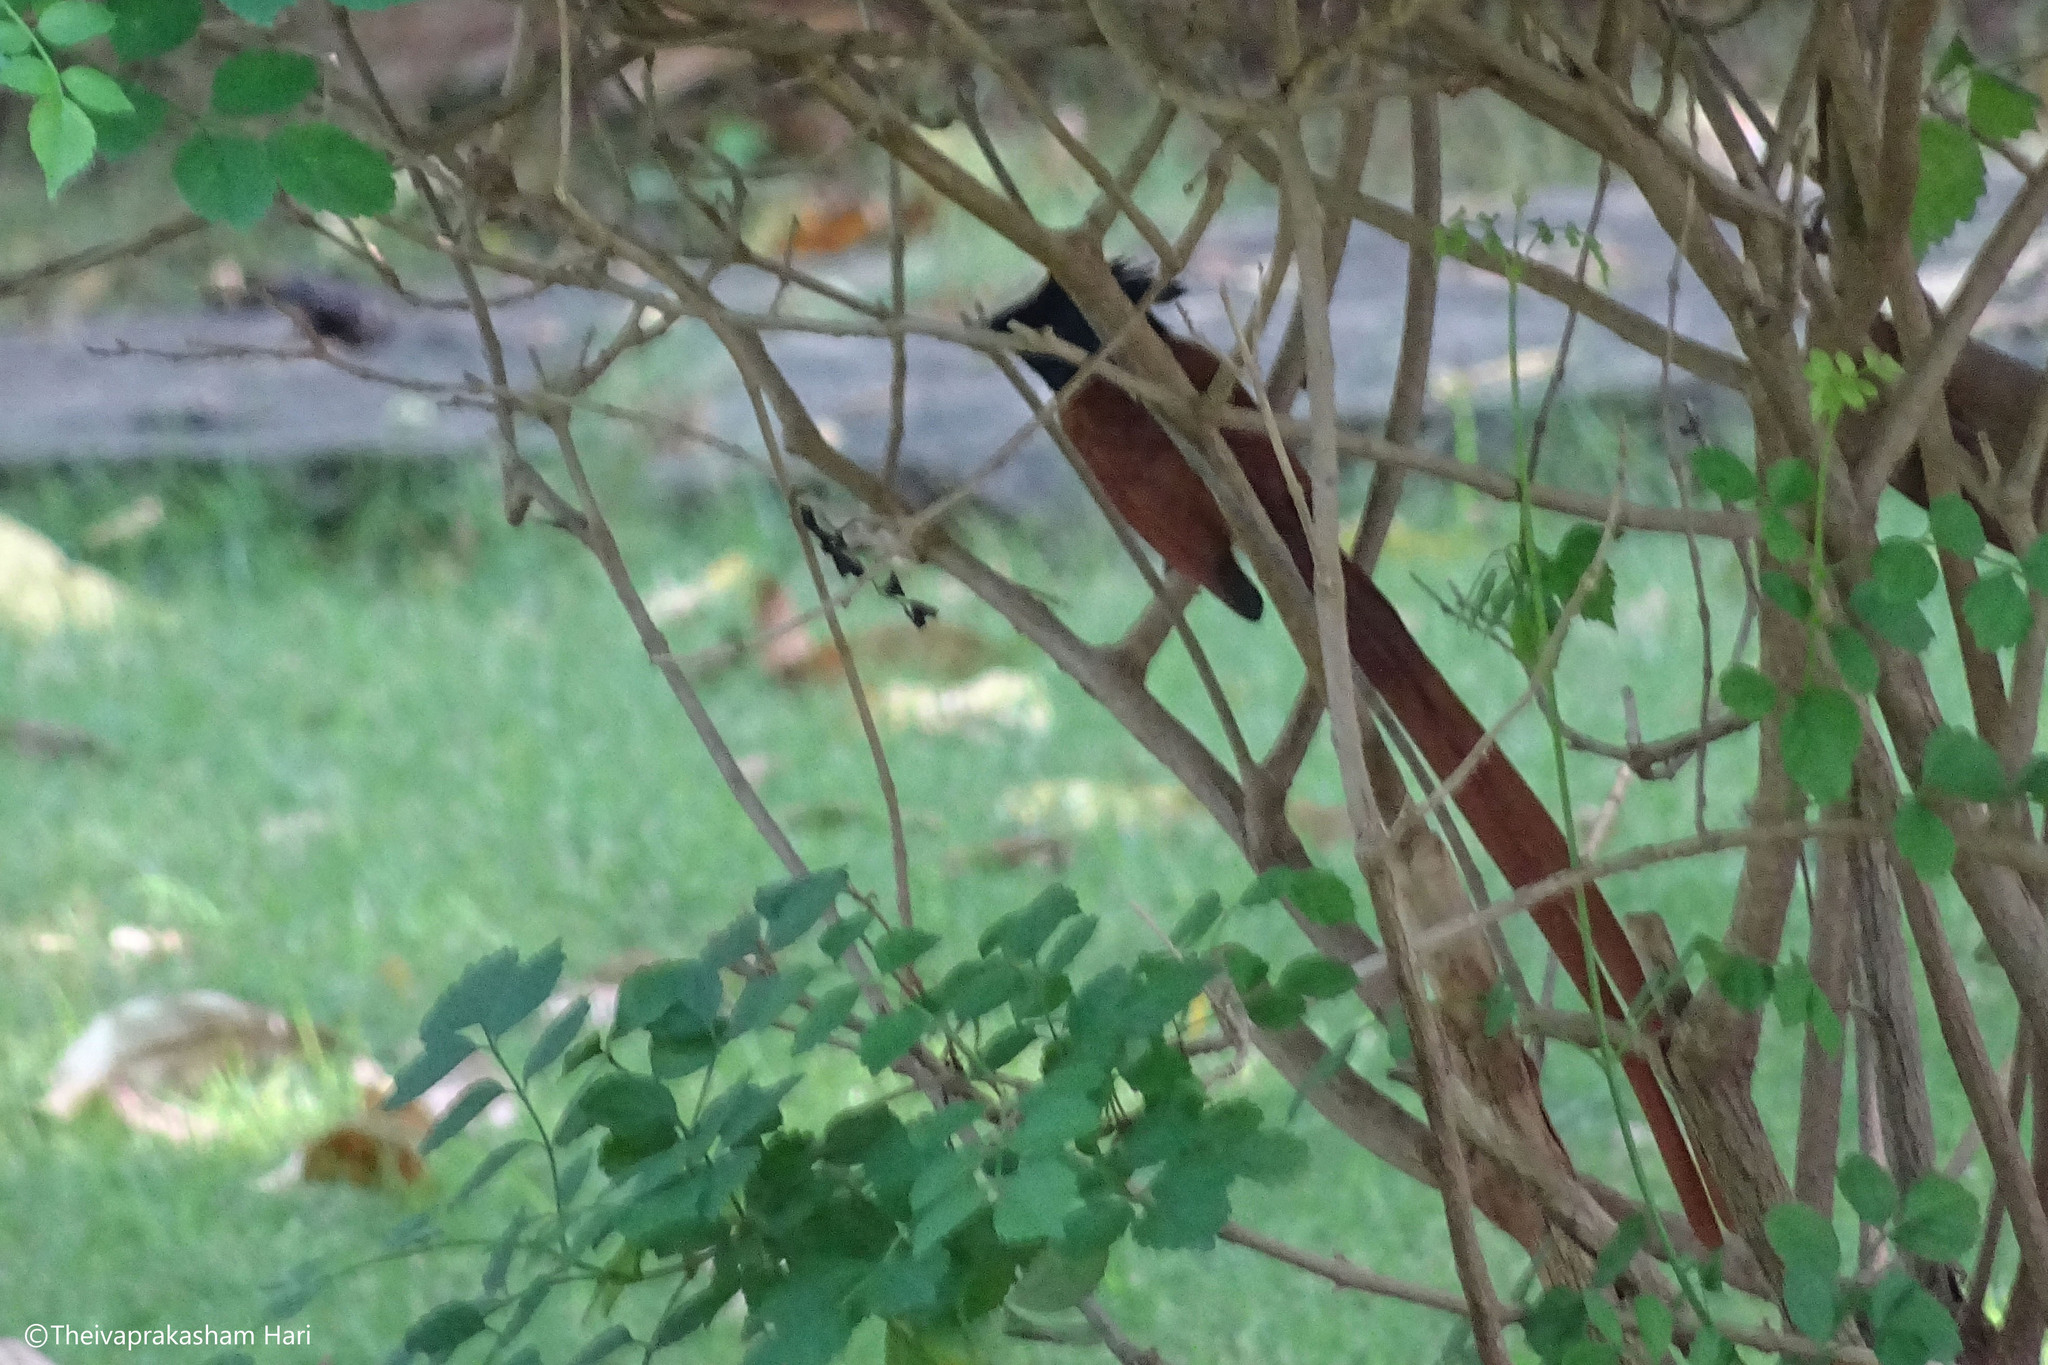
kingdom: Animalia
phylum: Chordata
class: Aves
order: Passeriformes
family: Monarchidae
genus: Terpsiphone
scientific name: Terpsiphone paradisi
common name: Indian paradise flycatcher
